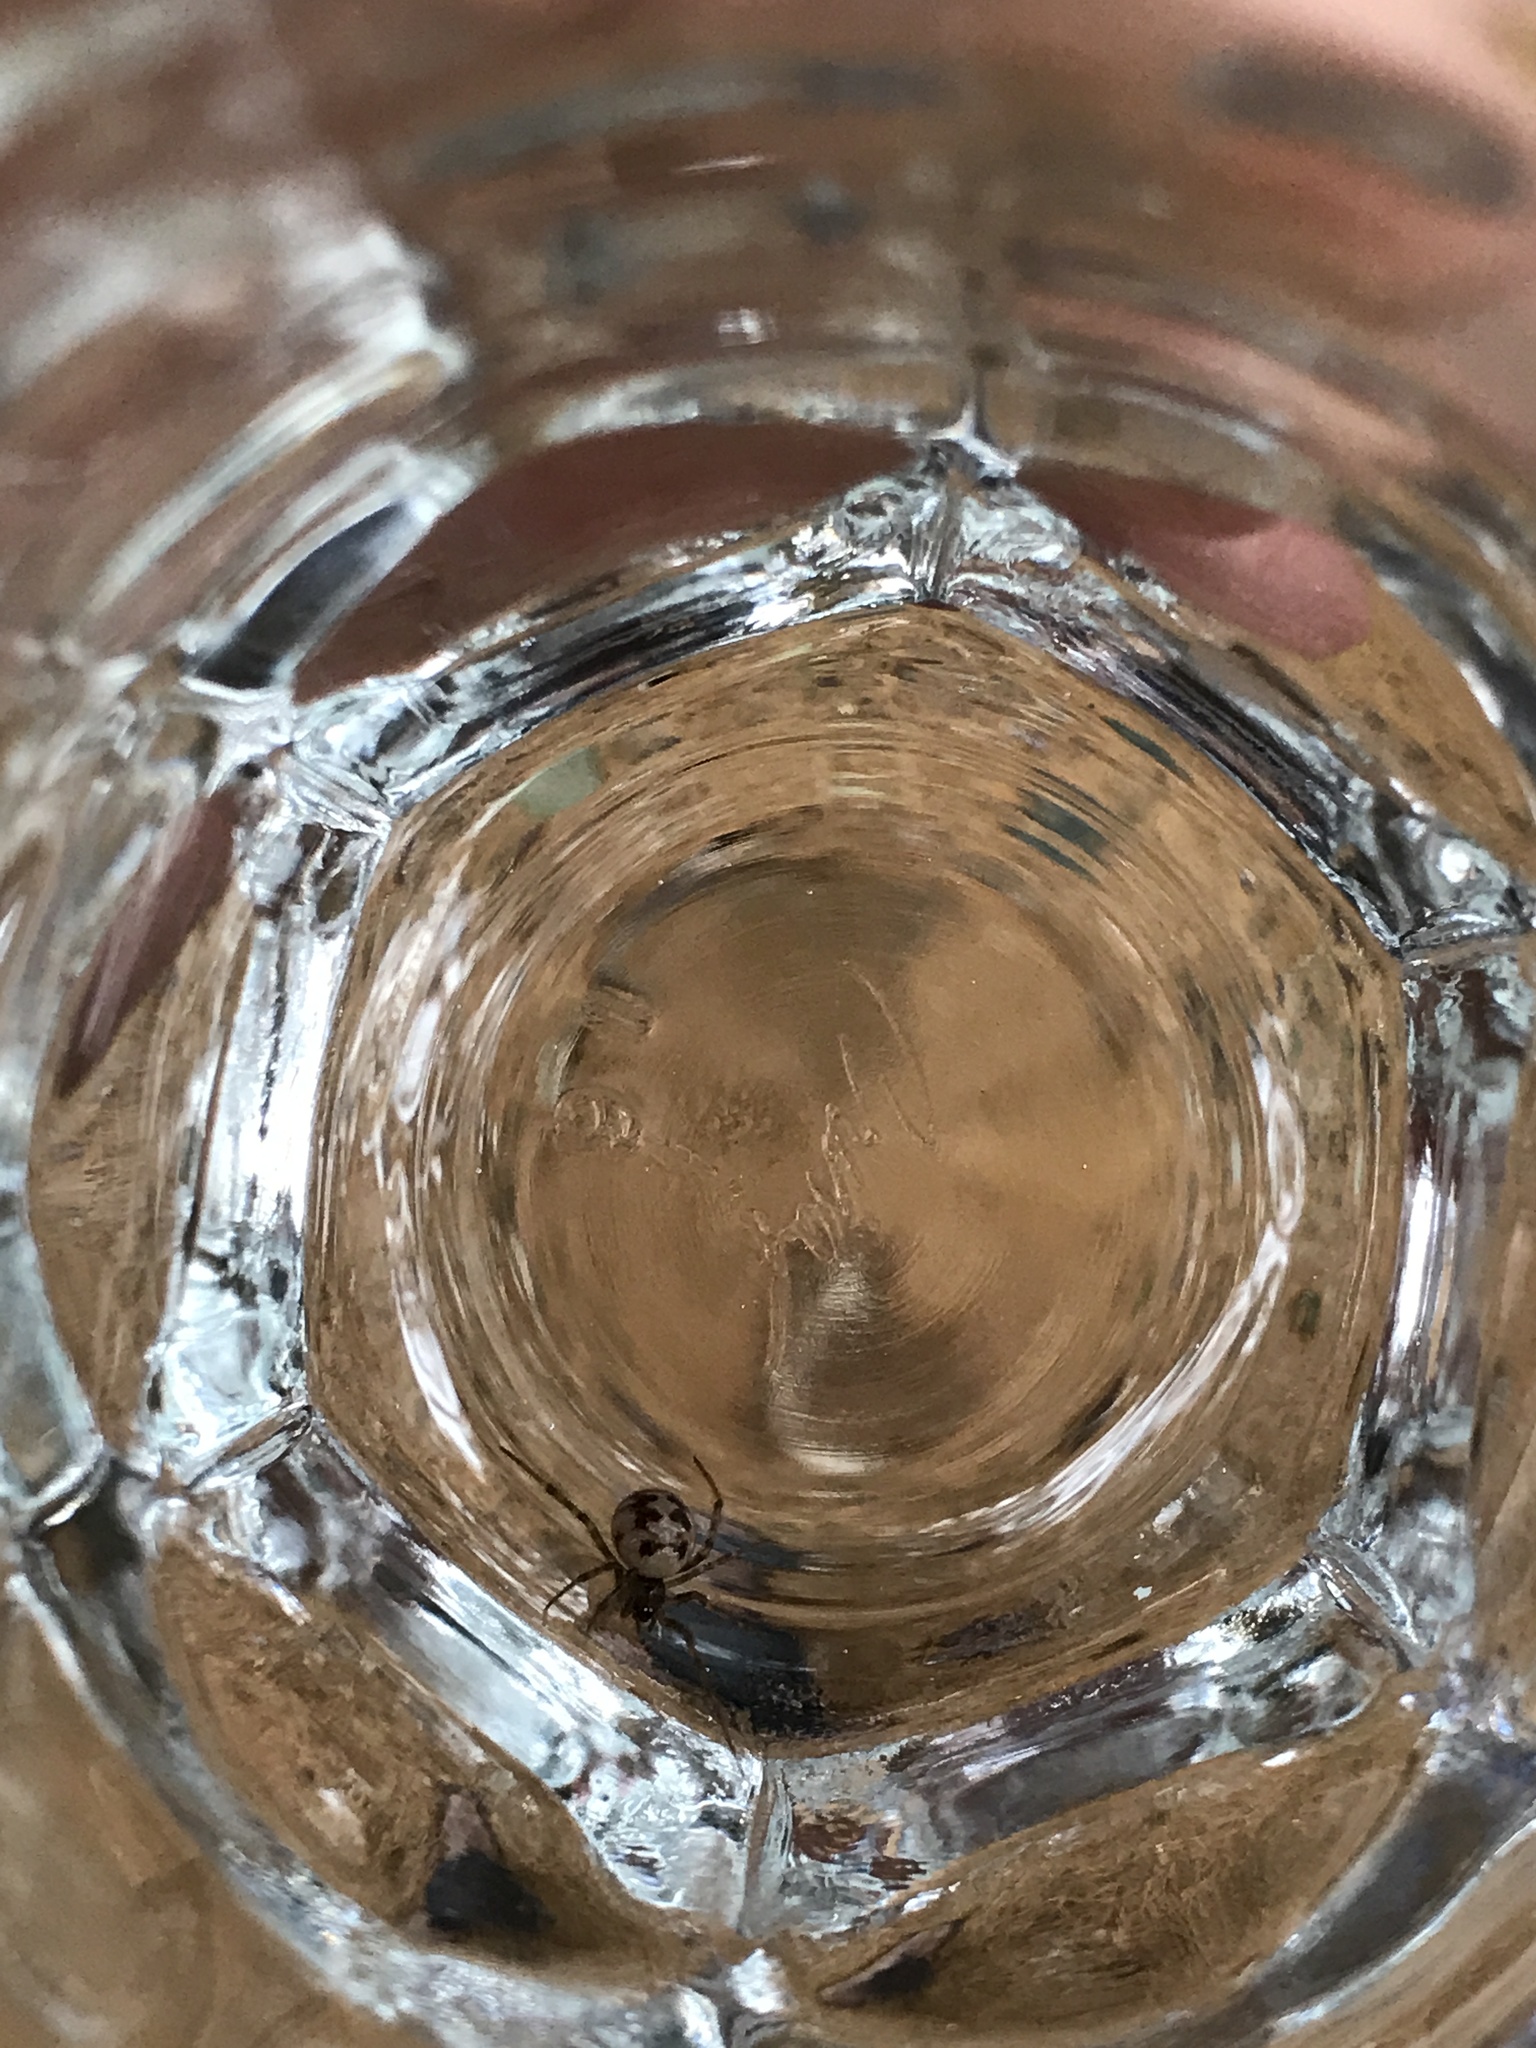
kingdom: Animalia
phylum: Arthropoda
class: Arachnida
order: Araneae
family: Theridiidae
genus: Steatoda
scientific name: Steatoda triangulosa
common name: Triangulate bud spider
